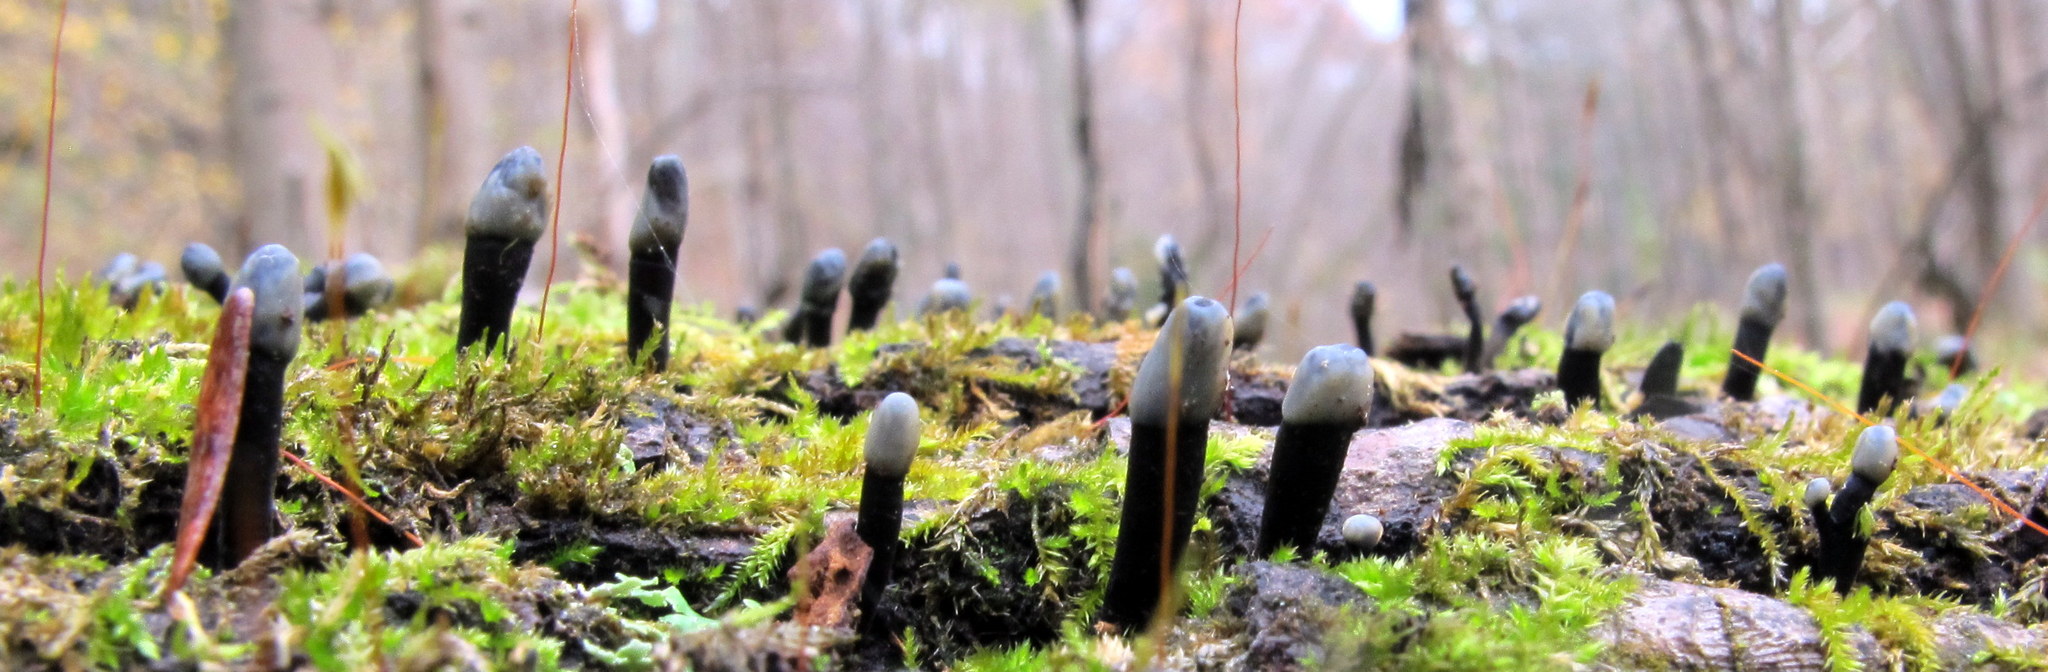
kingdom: Fungi
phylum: Ascomycota
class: Leotiomycetes
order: Helotiales
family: Bulgariaceae
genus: Holwaya
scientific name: Holwaya mucida
